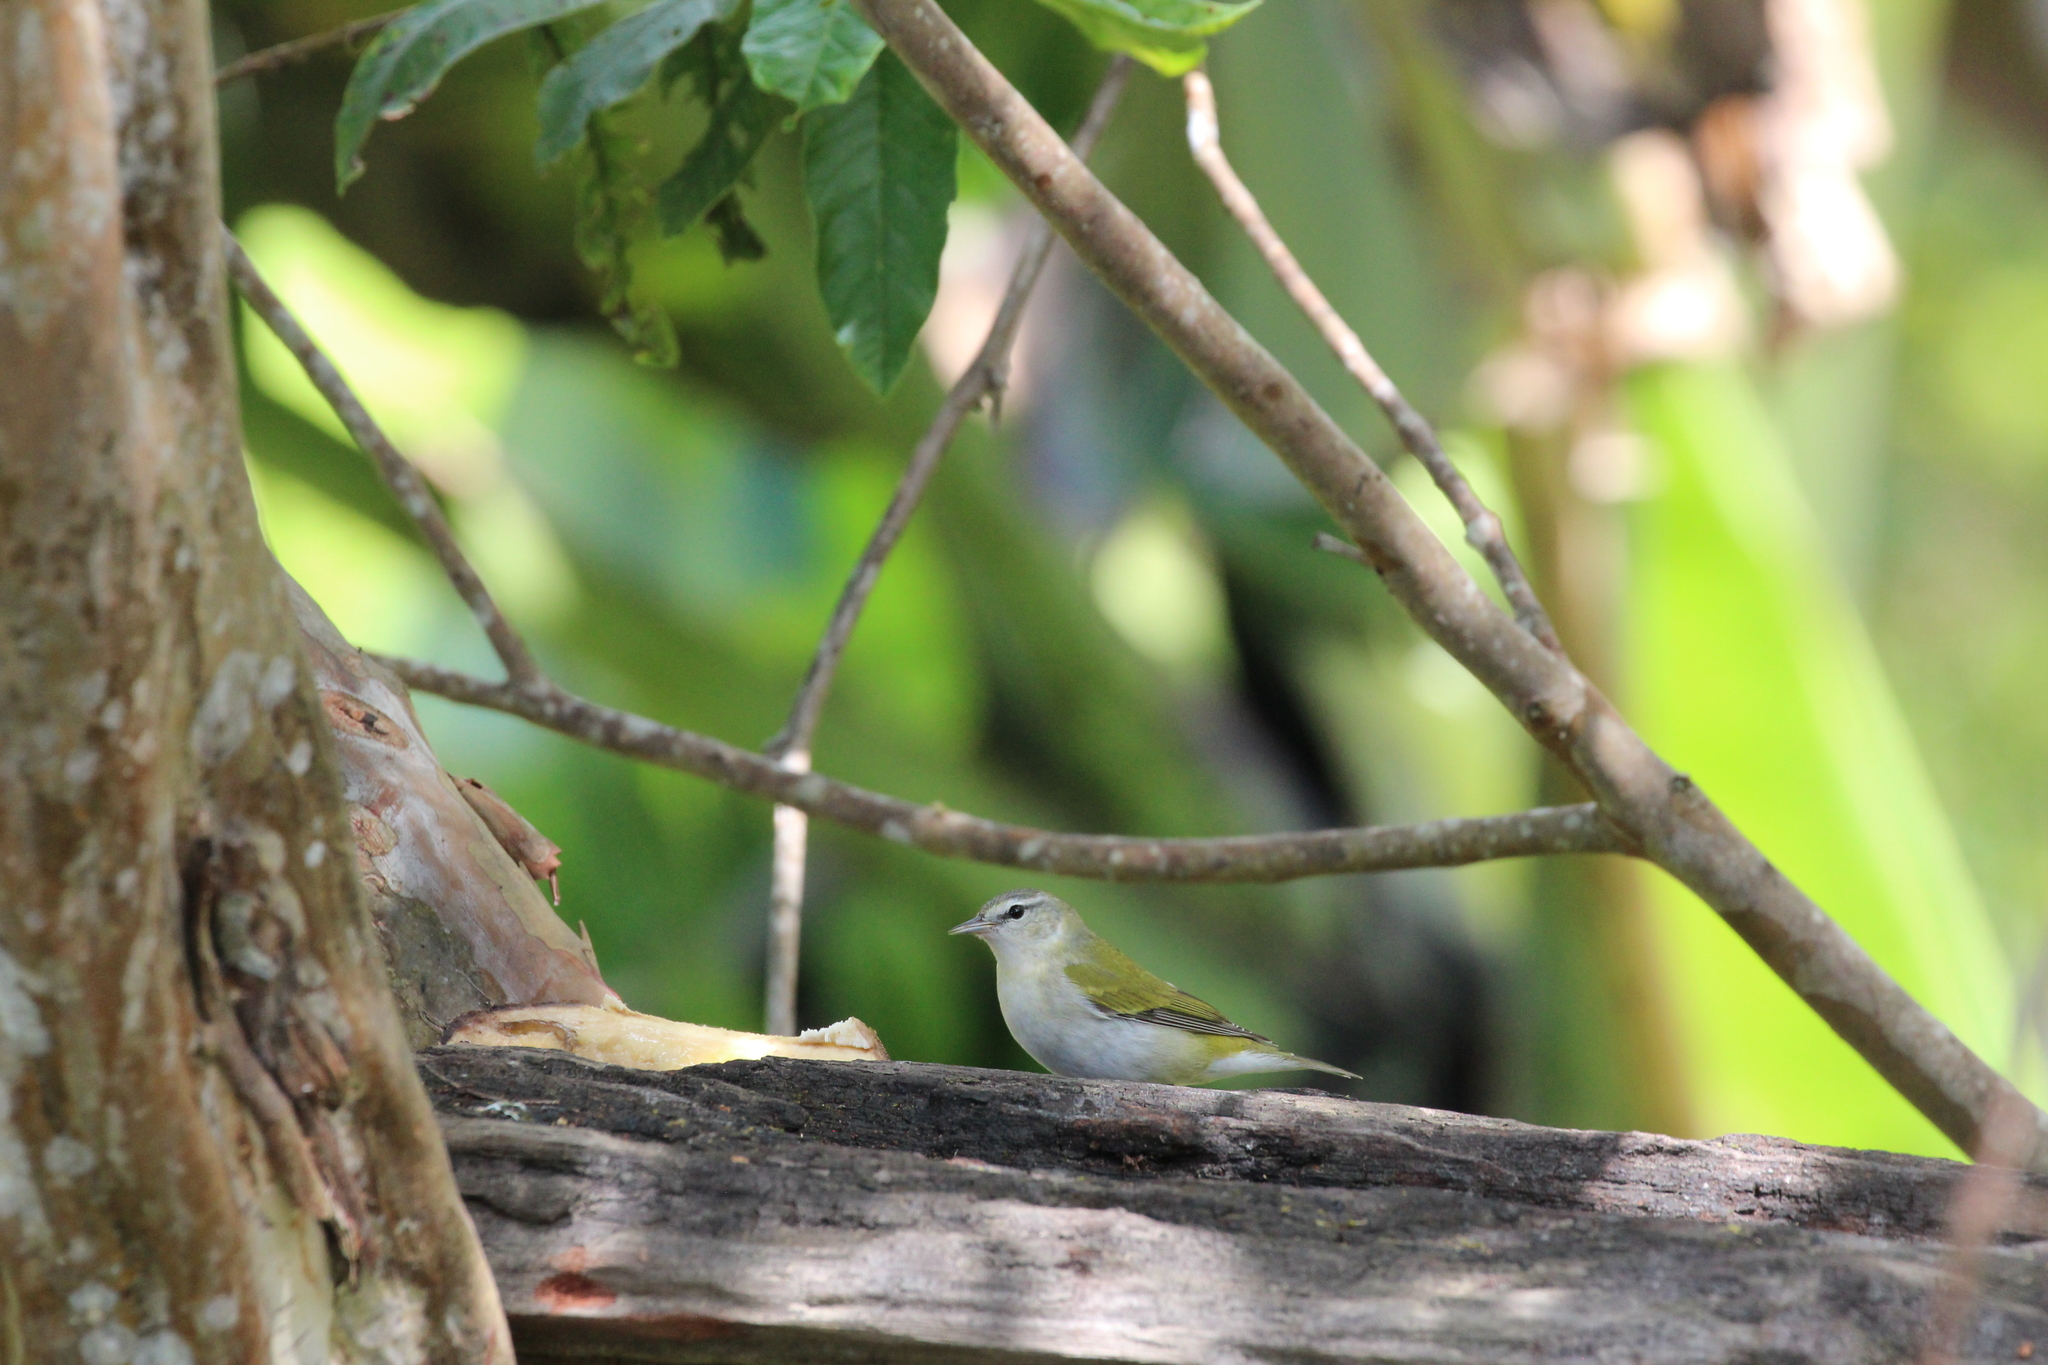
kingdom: Animalia
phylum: Chordata
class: Aves
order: Passeriformes
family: Parulidae
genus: Leiothlypis
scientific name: Leiothlypis peregrina
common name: Tennessee warbler
